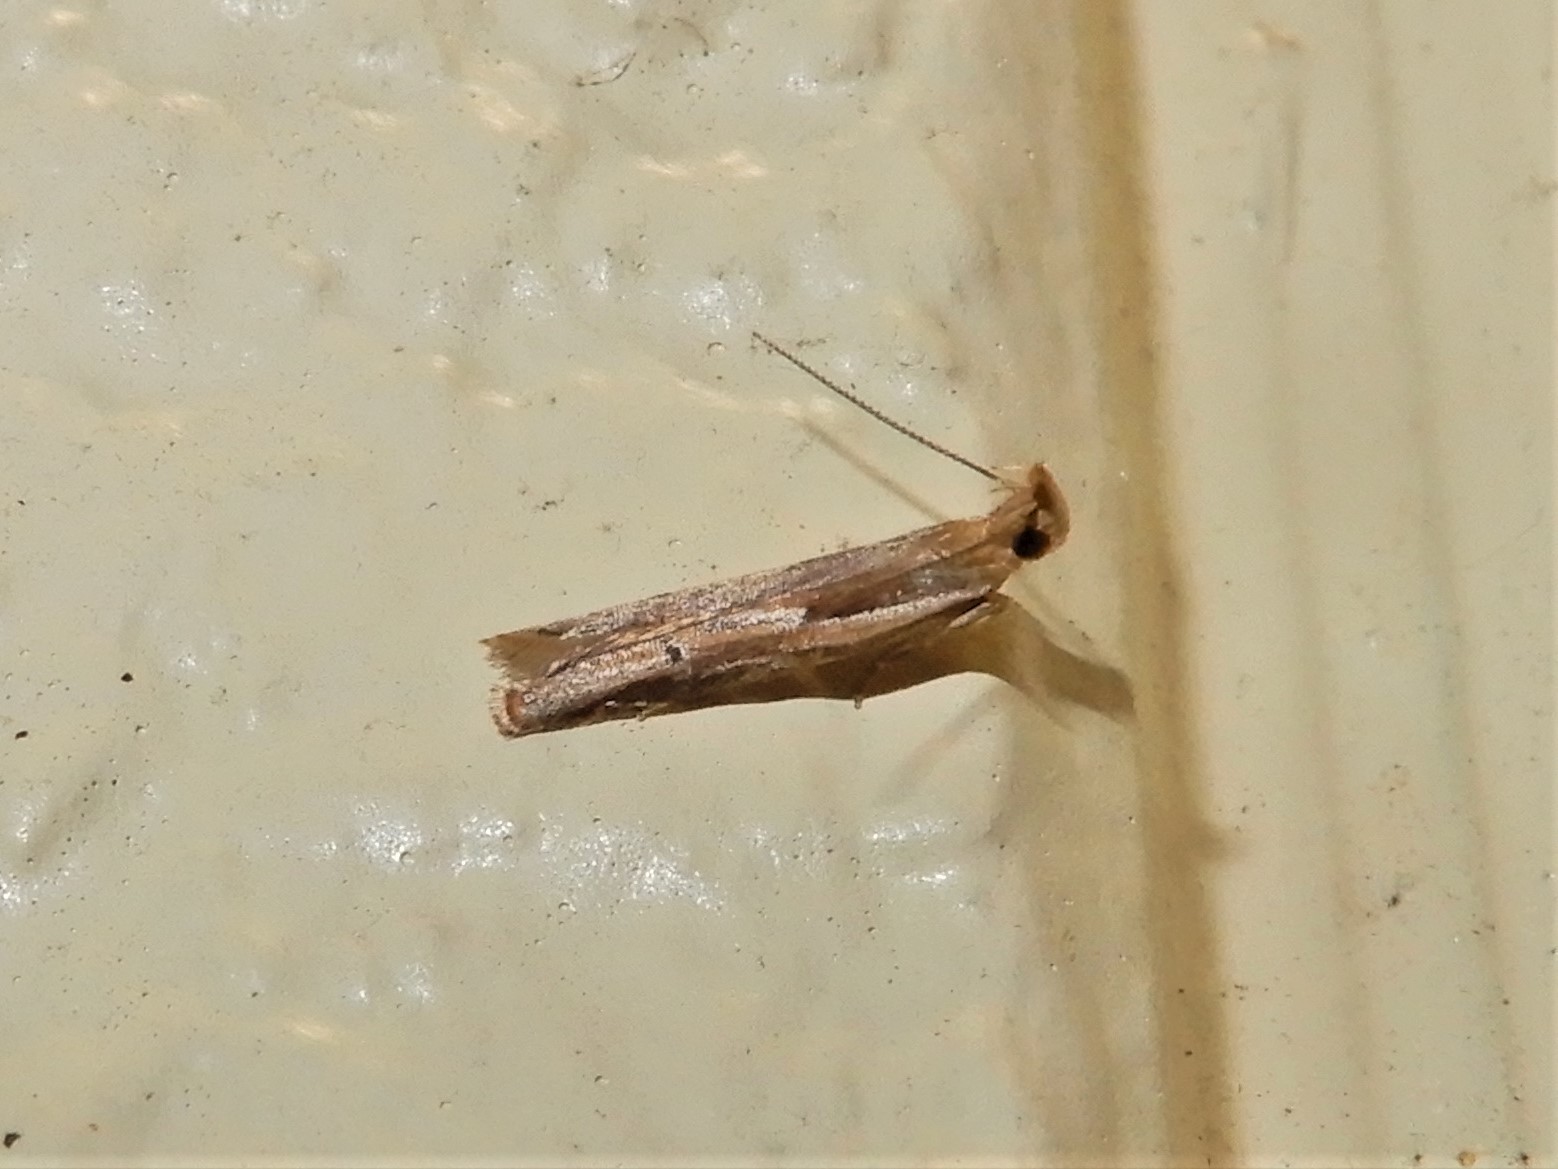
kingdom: Animalia
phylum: Arthropoda
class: Insecta
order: Lepidoptera
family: Depressariidae
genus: Eutorna
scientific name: Eutorna symmorpha
